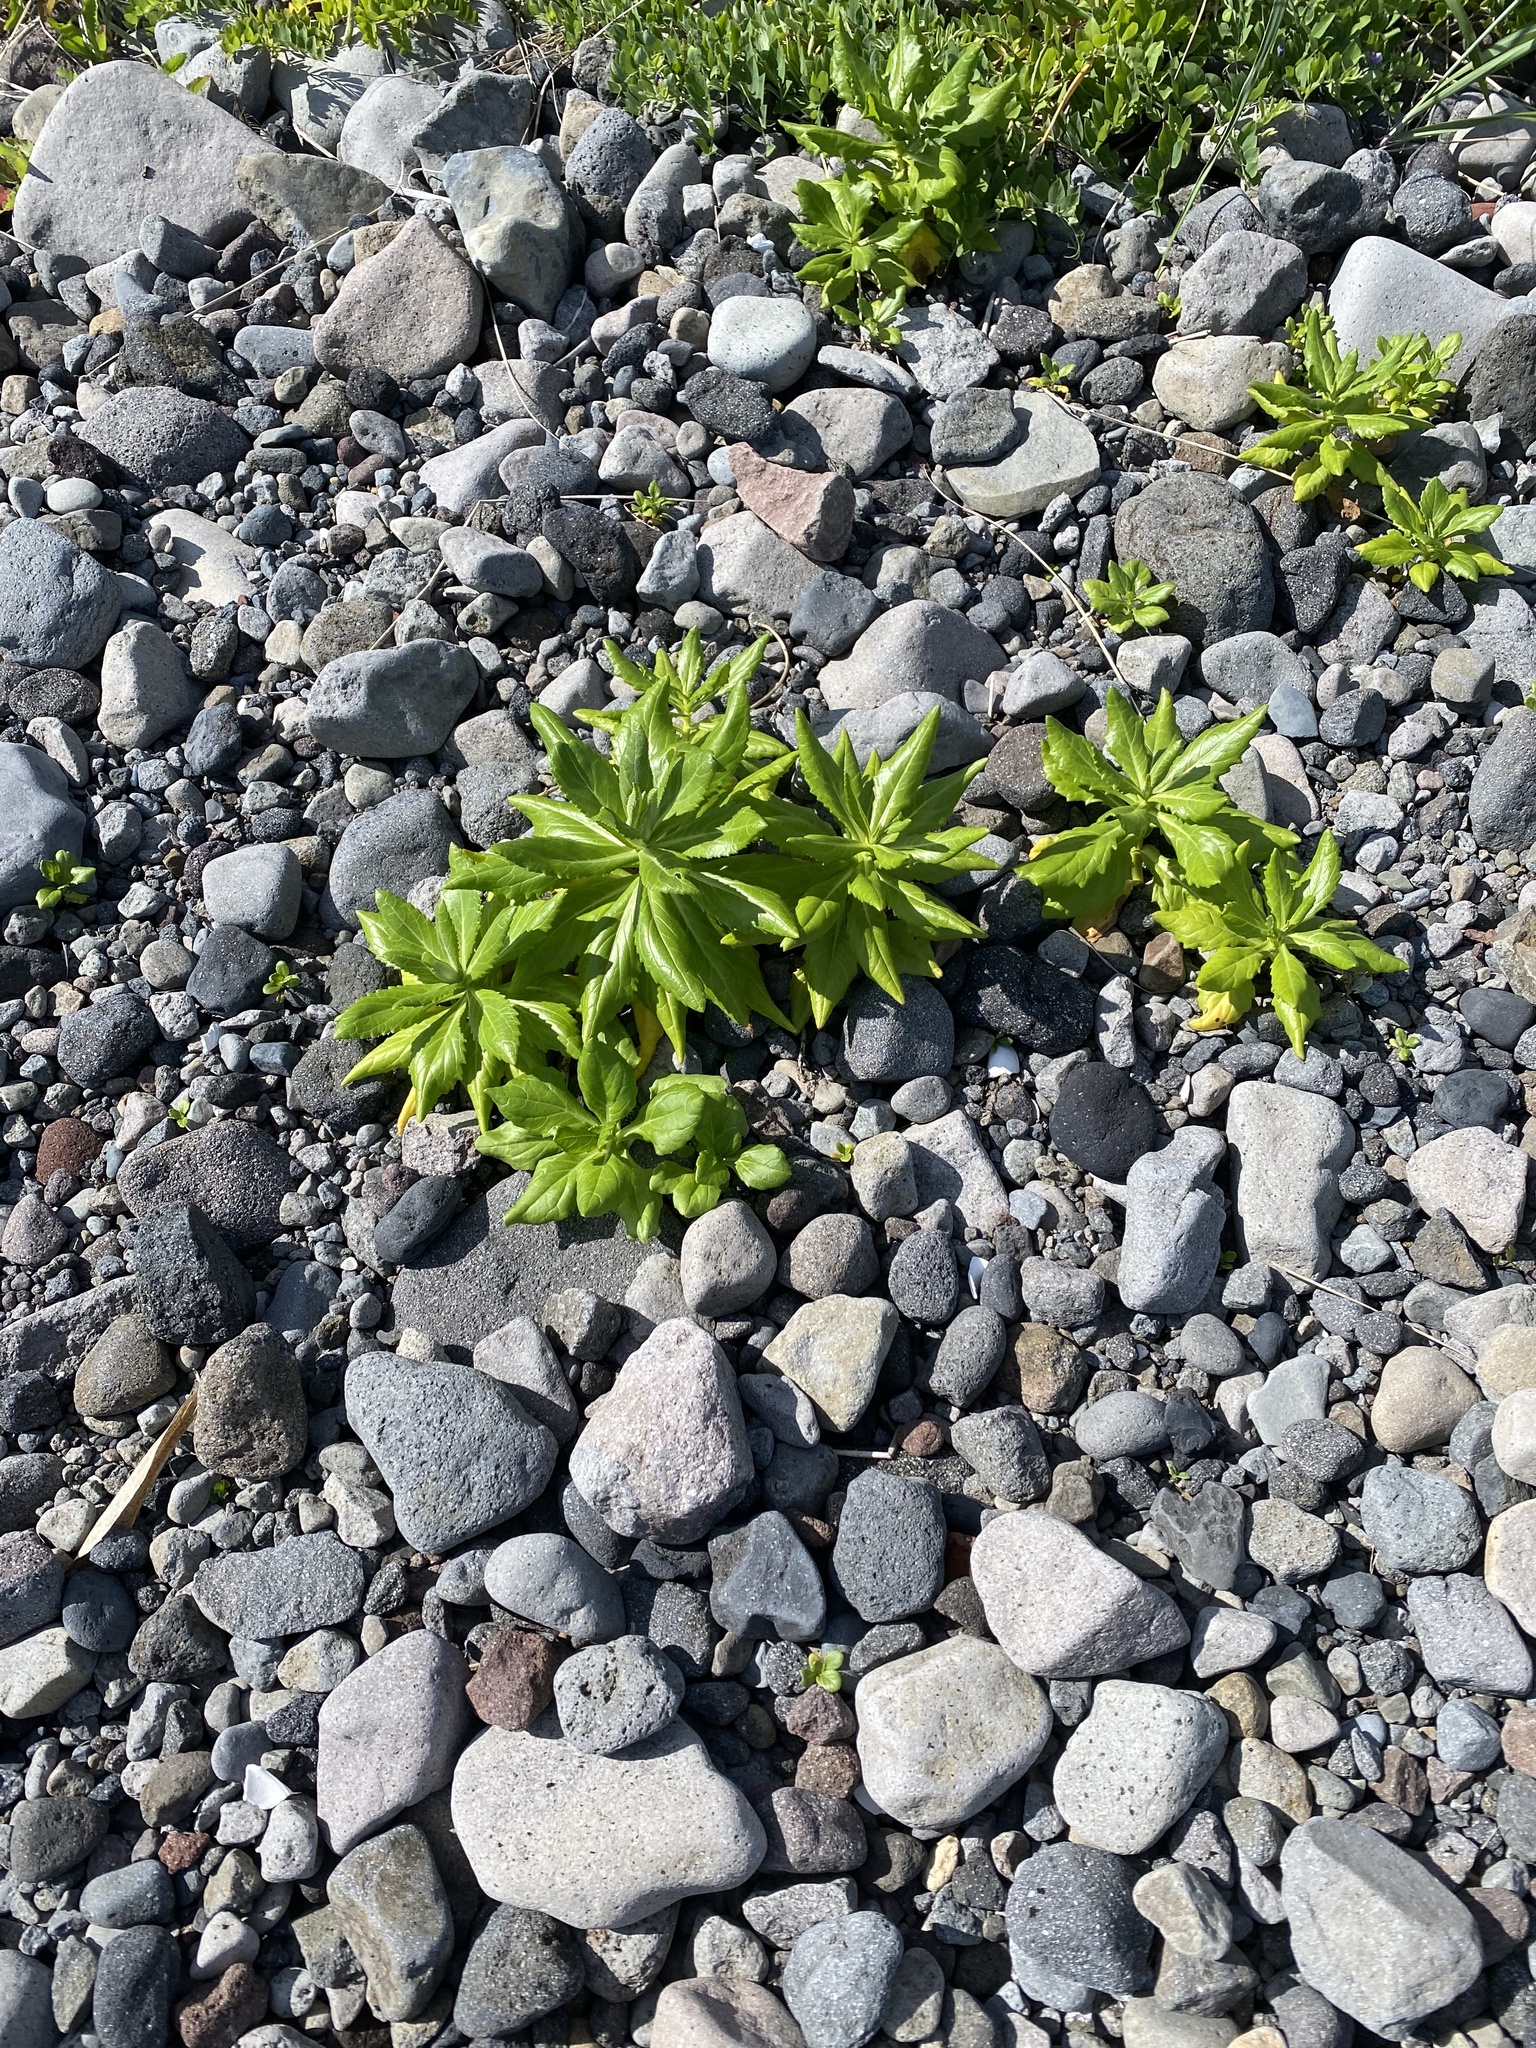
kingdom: Plantae
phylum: Tracheophyta
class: Magnoliopsida
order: Asterales
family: Asteraceae
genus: Jacobaea
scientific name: Jacobaea pseudoarnica
